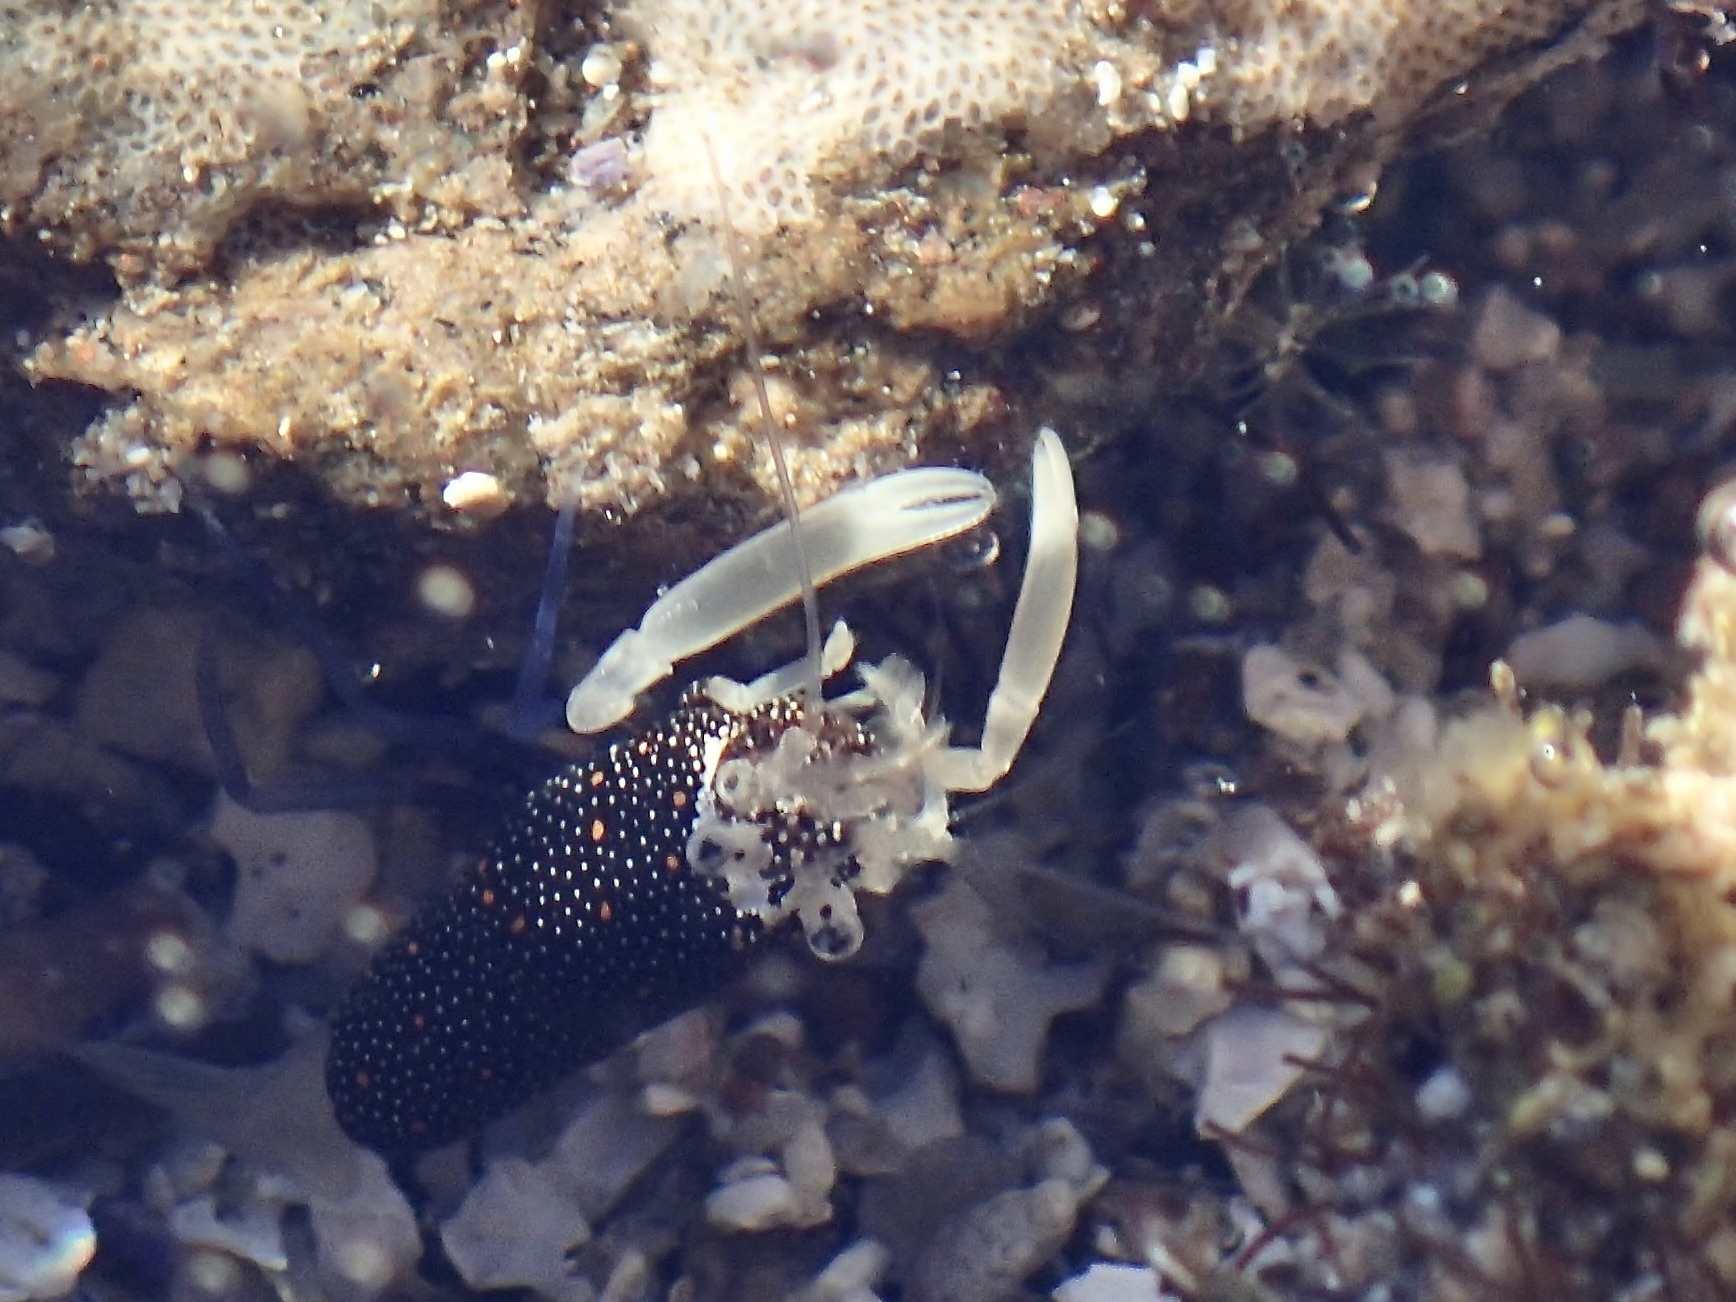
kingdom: Animalia
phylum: Arthropoda
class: Malacostraca
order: Decapoda
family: Palaemonidae
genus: Gnathophyllum
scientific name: Gnathophyllum panamense
